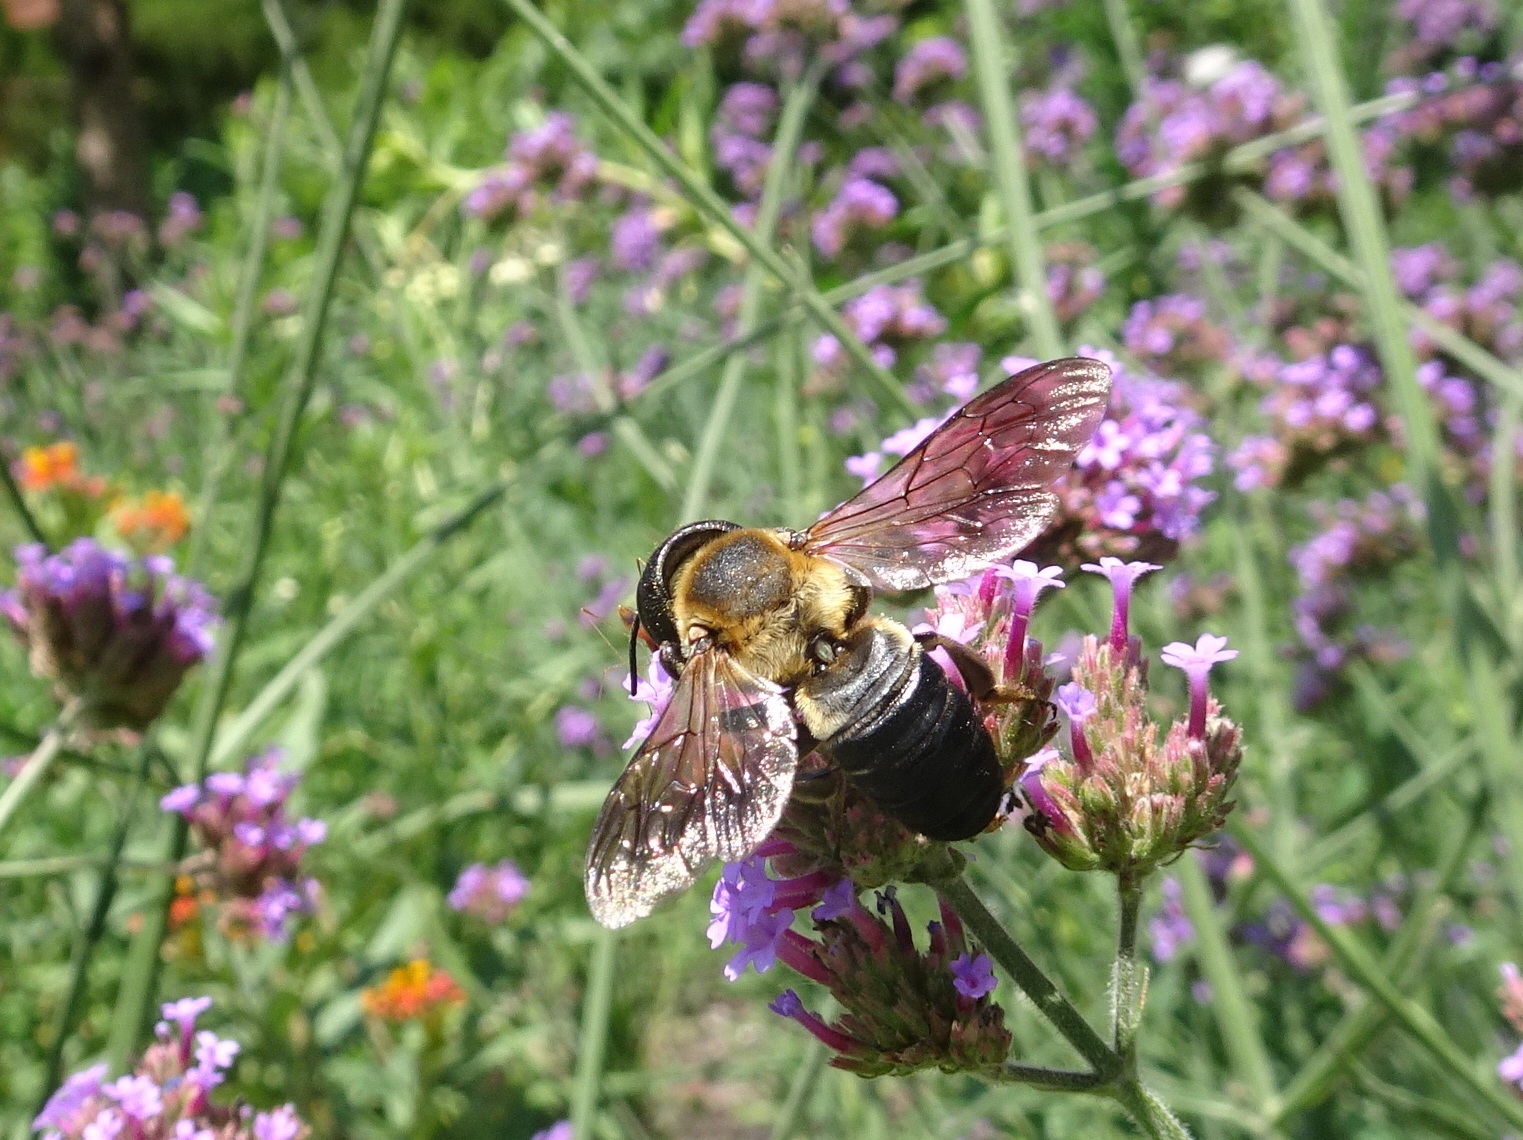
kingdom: Animalia
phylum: Arthropoda
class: Insecta
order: Hymenoptera
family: Megachilidae
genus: Megachile
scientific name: Megachile sculpturalis
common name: Sculptured resin bee
